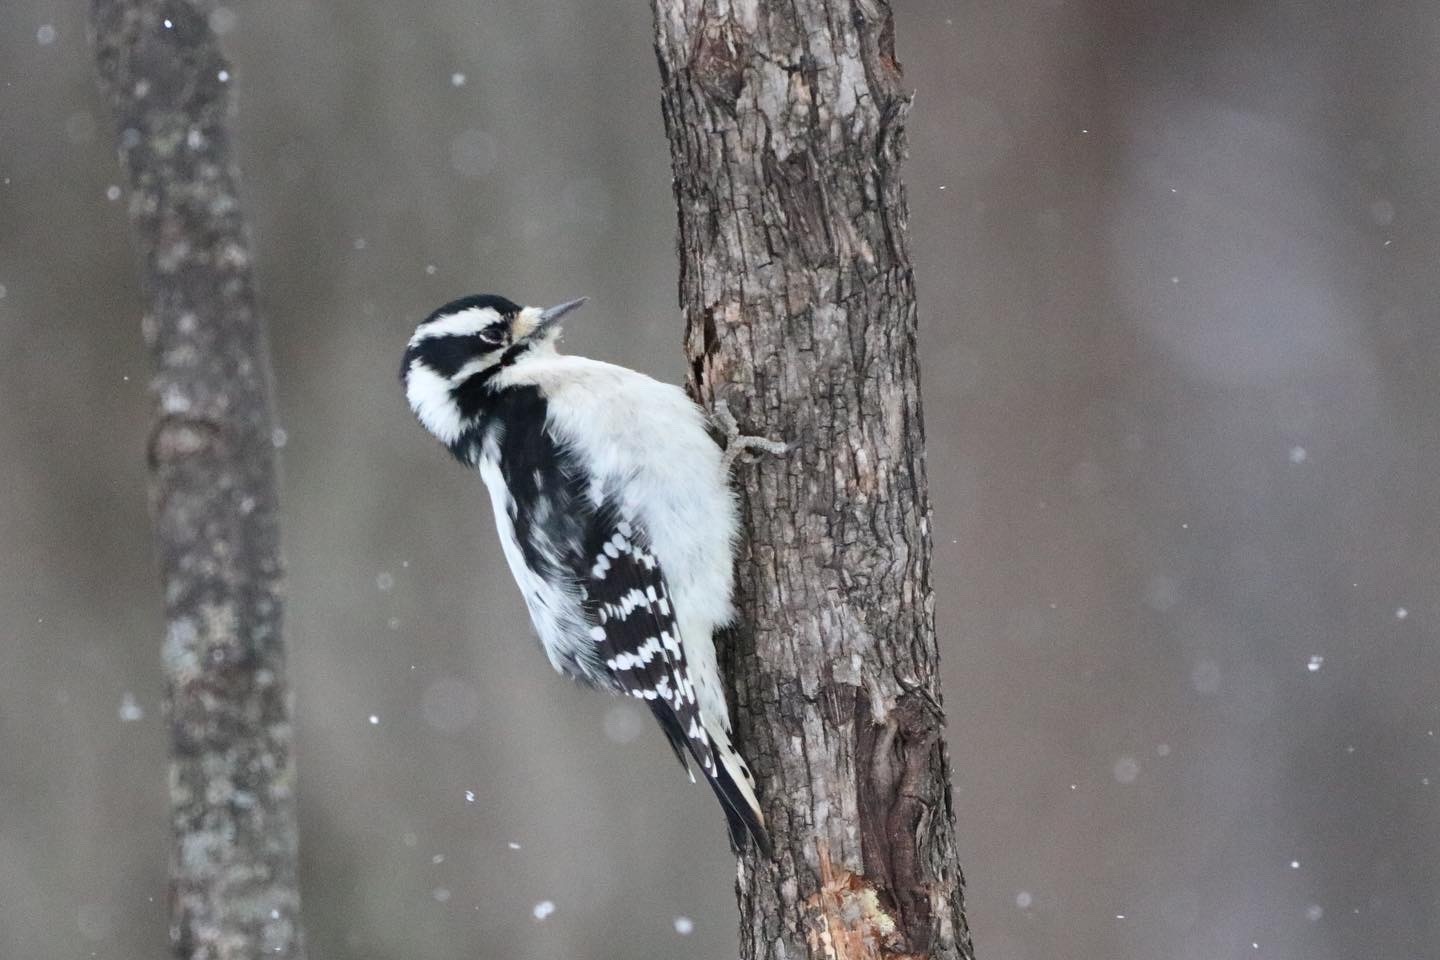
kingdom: Animalia
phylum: Chordata
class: Aves
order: Piciformes
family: Picidae
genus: Dryobates
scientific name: Dryobates pubescens
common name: Downy woodpecker
